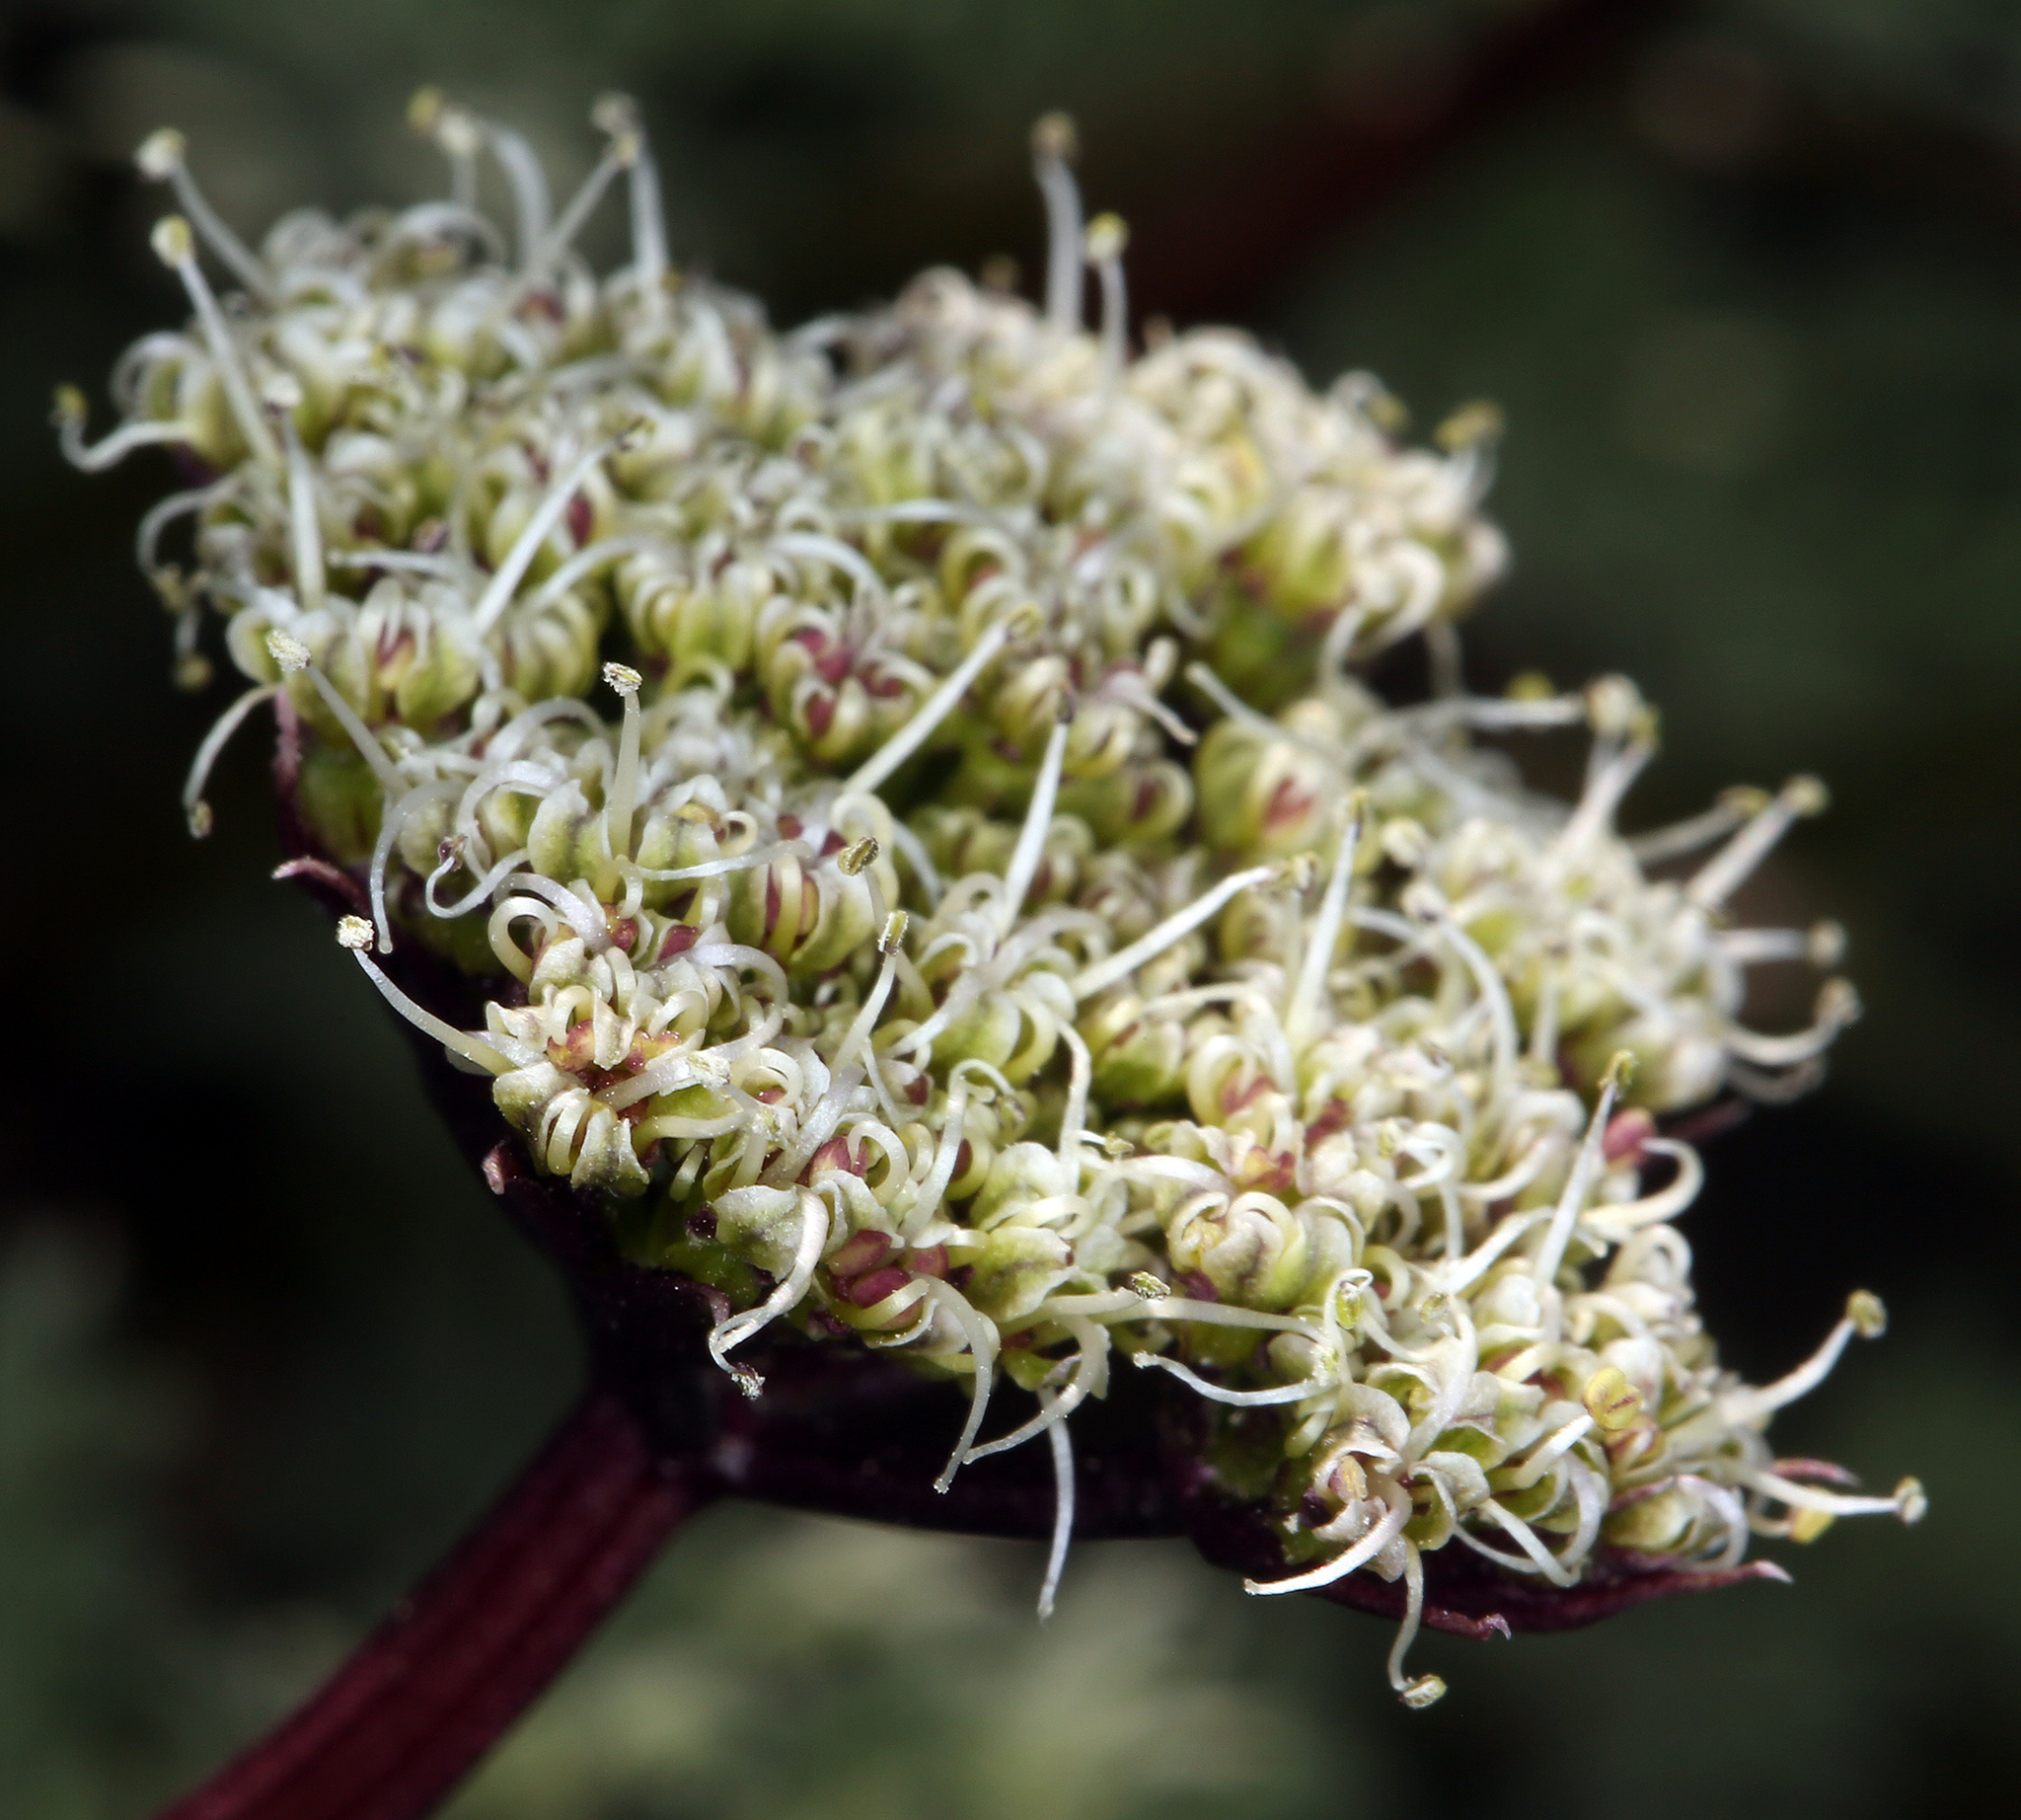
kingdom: Plantae
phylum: Tracheophyta
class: Magnoliopsida
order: Apiales
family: Apiaceae
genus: Aulospermum
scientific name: Aulospermum aboriginum
